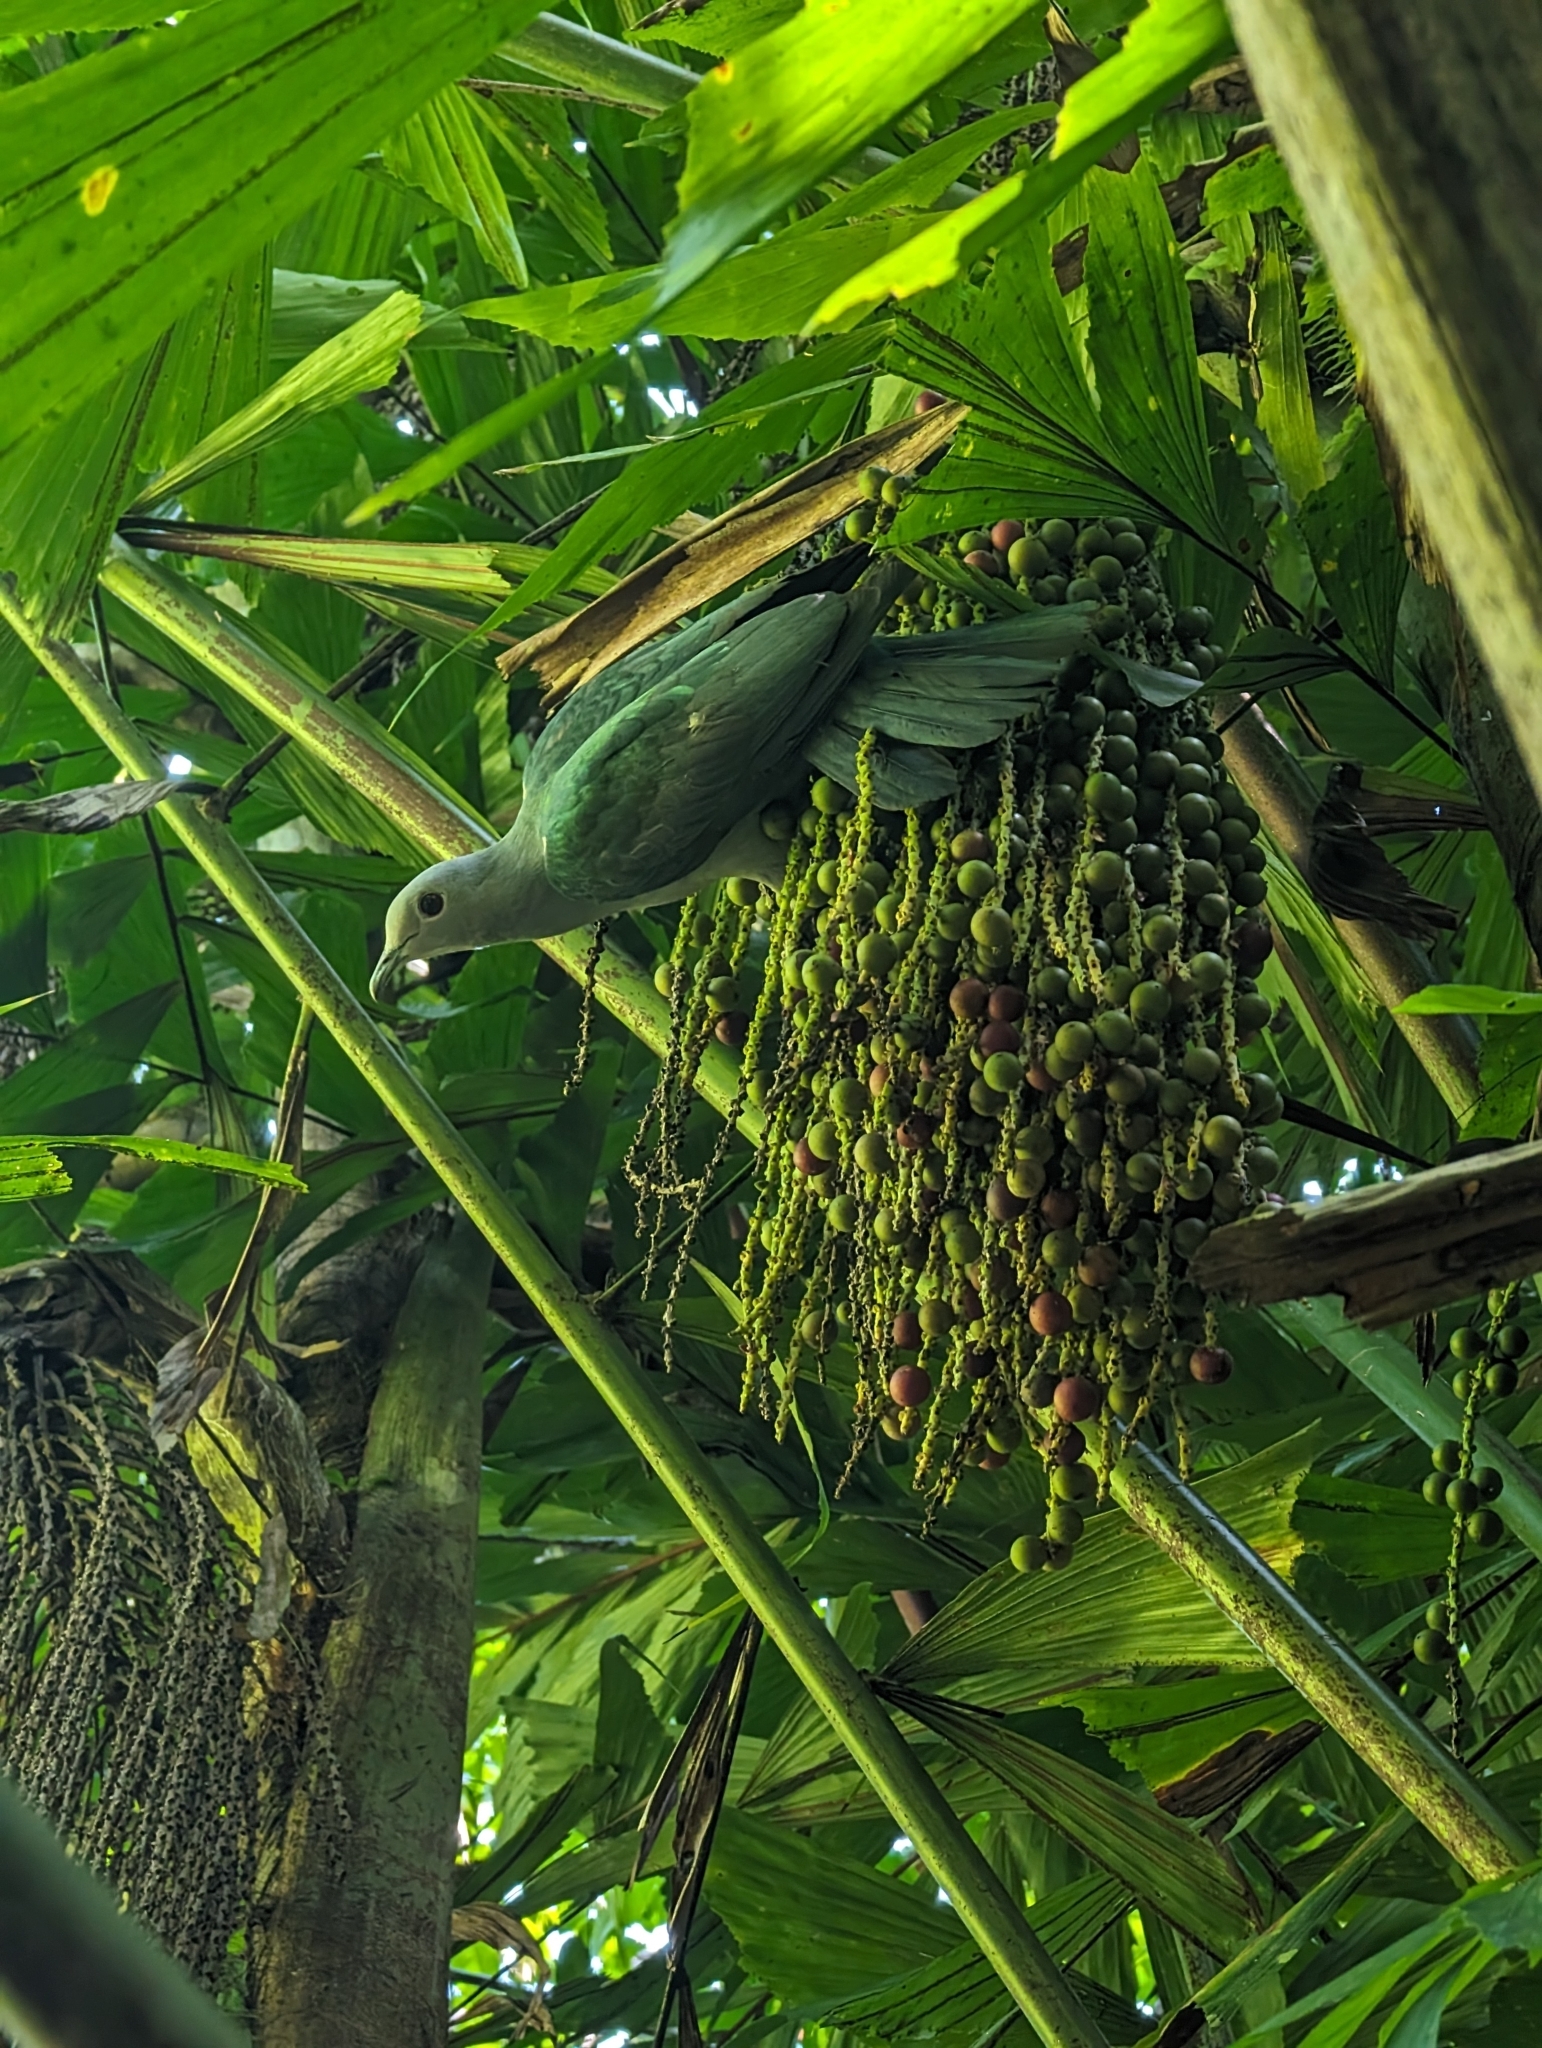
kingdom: Animalia
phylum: Chordata
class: Aves
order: Columbiformes
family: Columbidae
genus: Ducula
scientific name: Ducula aenea
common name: Green imperial pigeon
